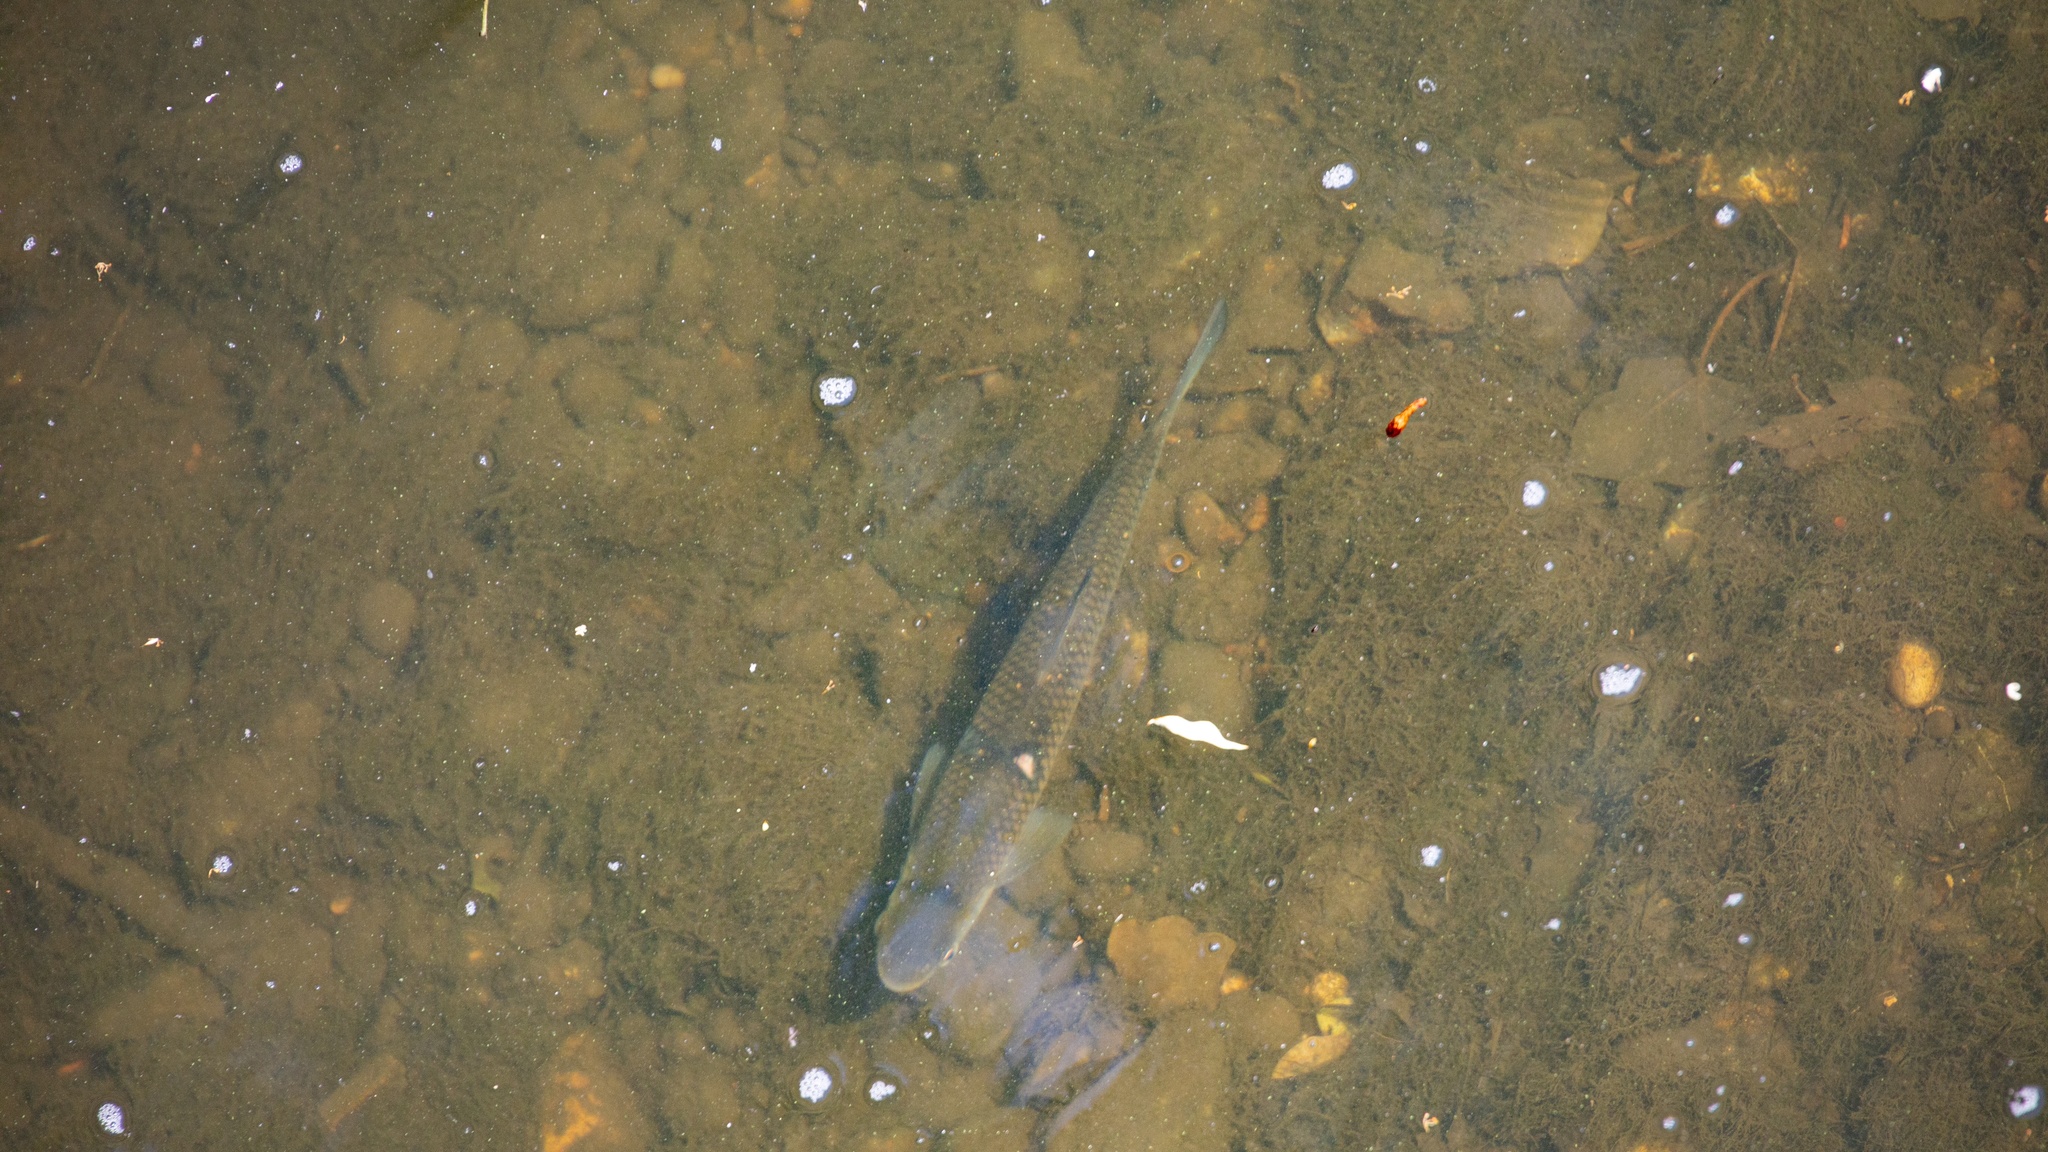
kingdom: Animalia
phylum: Chordata
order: Cypriniformes
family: Cyprinidae
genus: Squalius
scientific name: Squalius cephalus
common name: Chub
